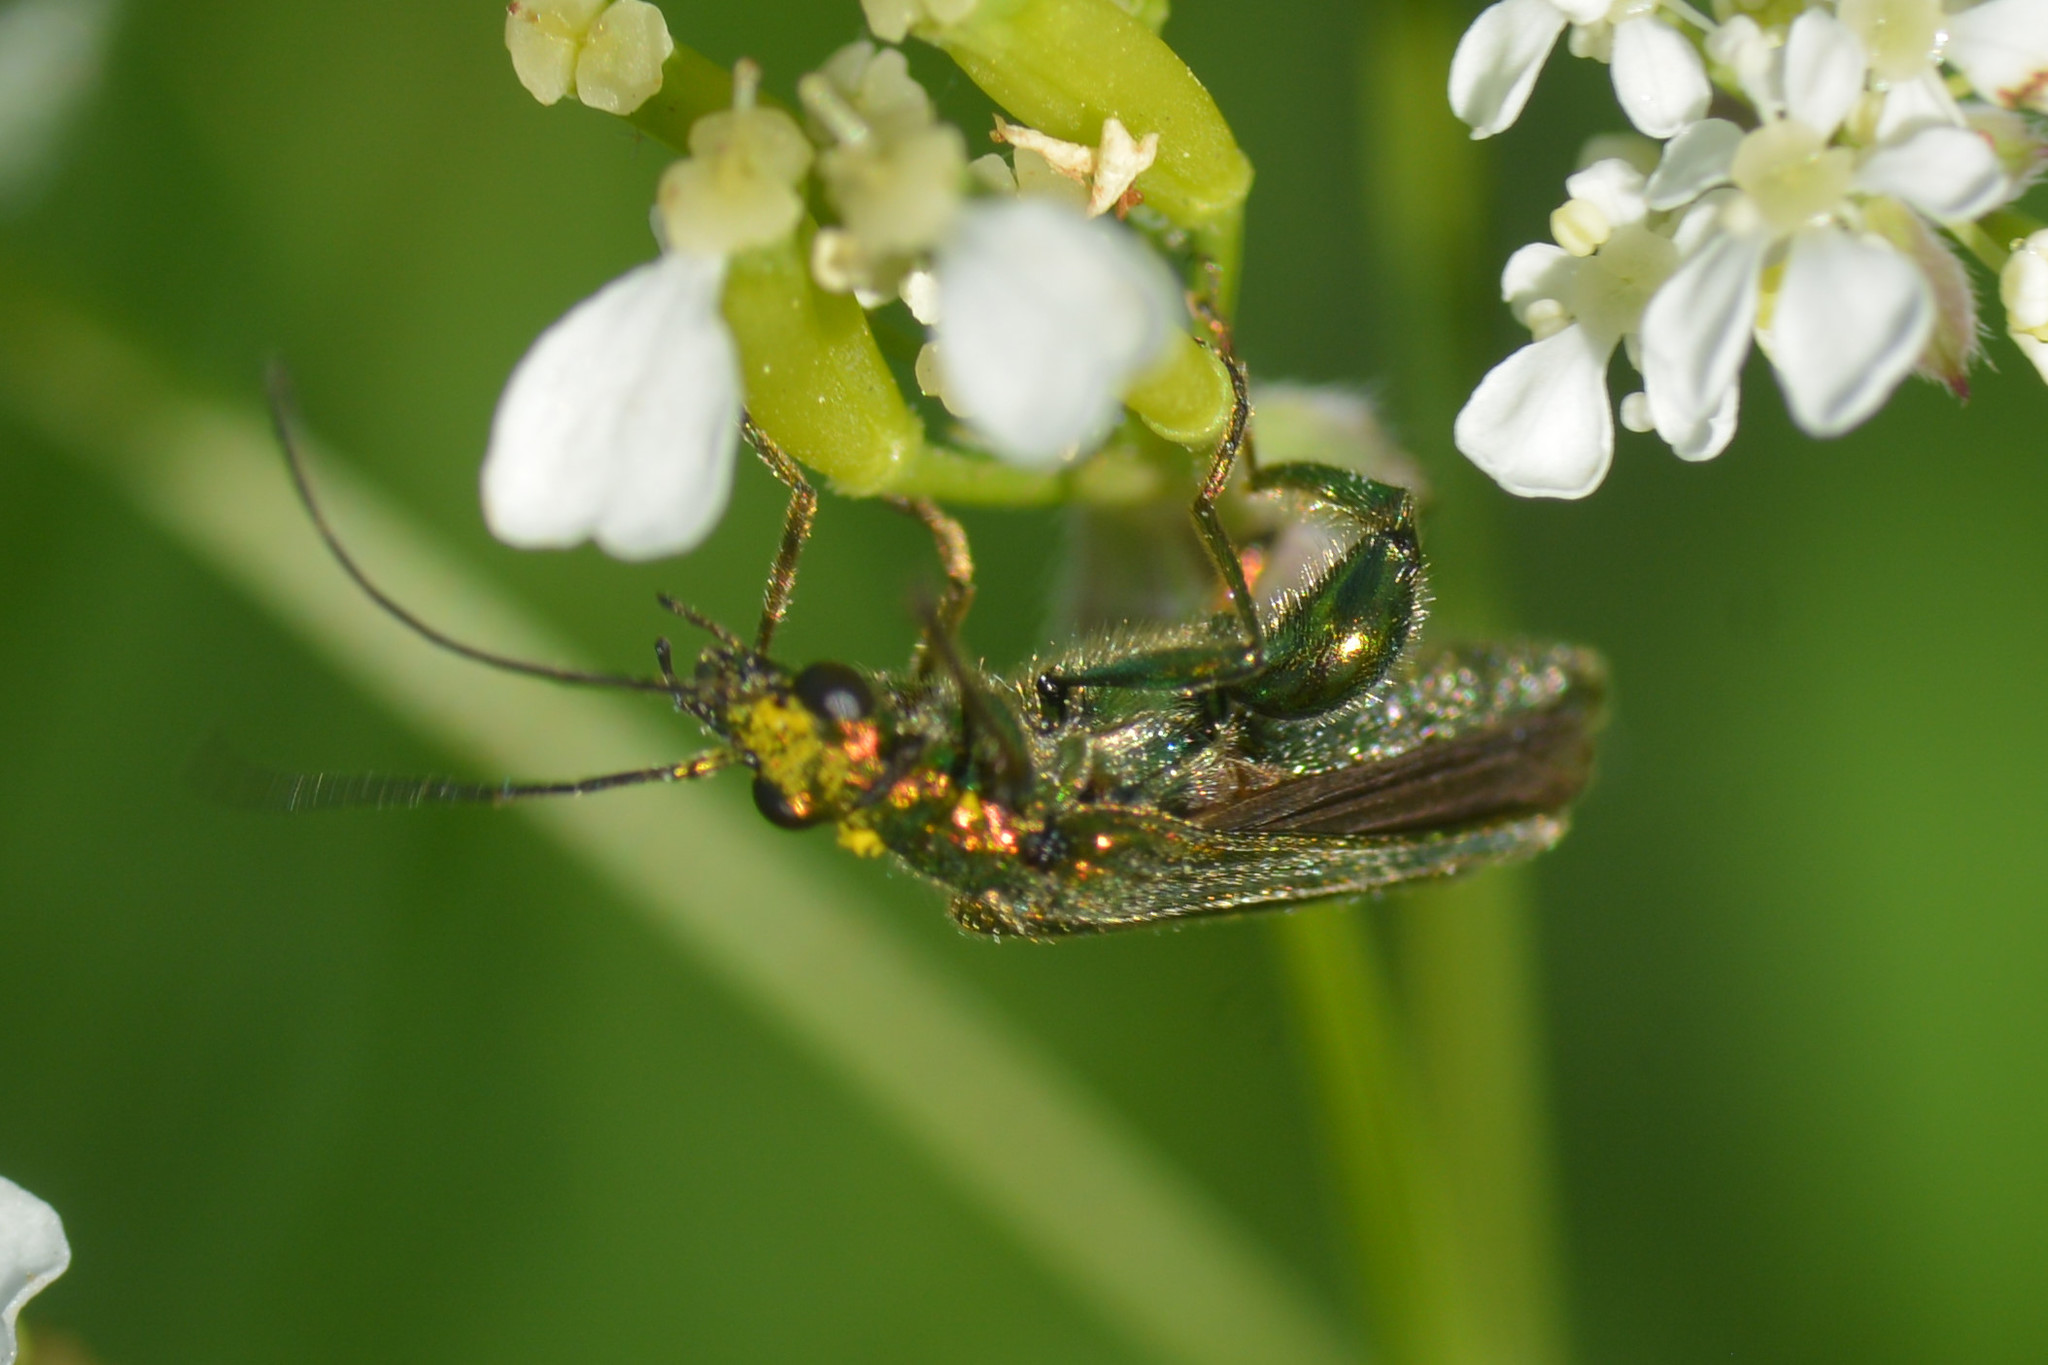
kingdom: Animalia
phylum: Arthropoda
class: Insecta
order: Coleoptera
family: Oedemeridae
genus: Oedemera
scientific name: Oedemera nobilis
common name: Swollen-thighed beetle
